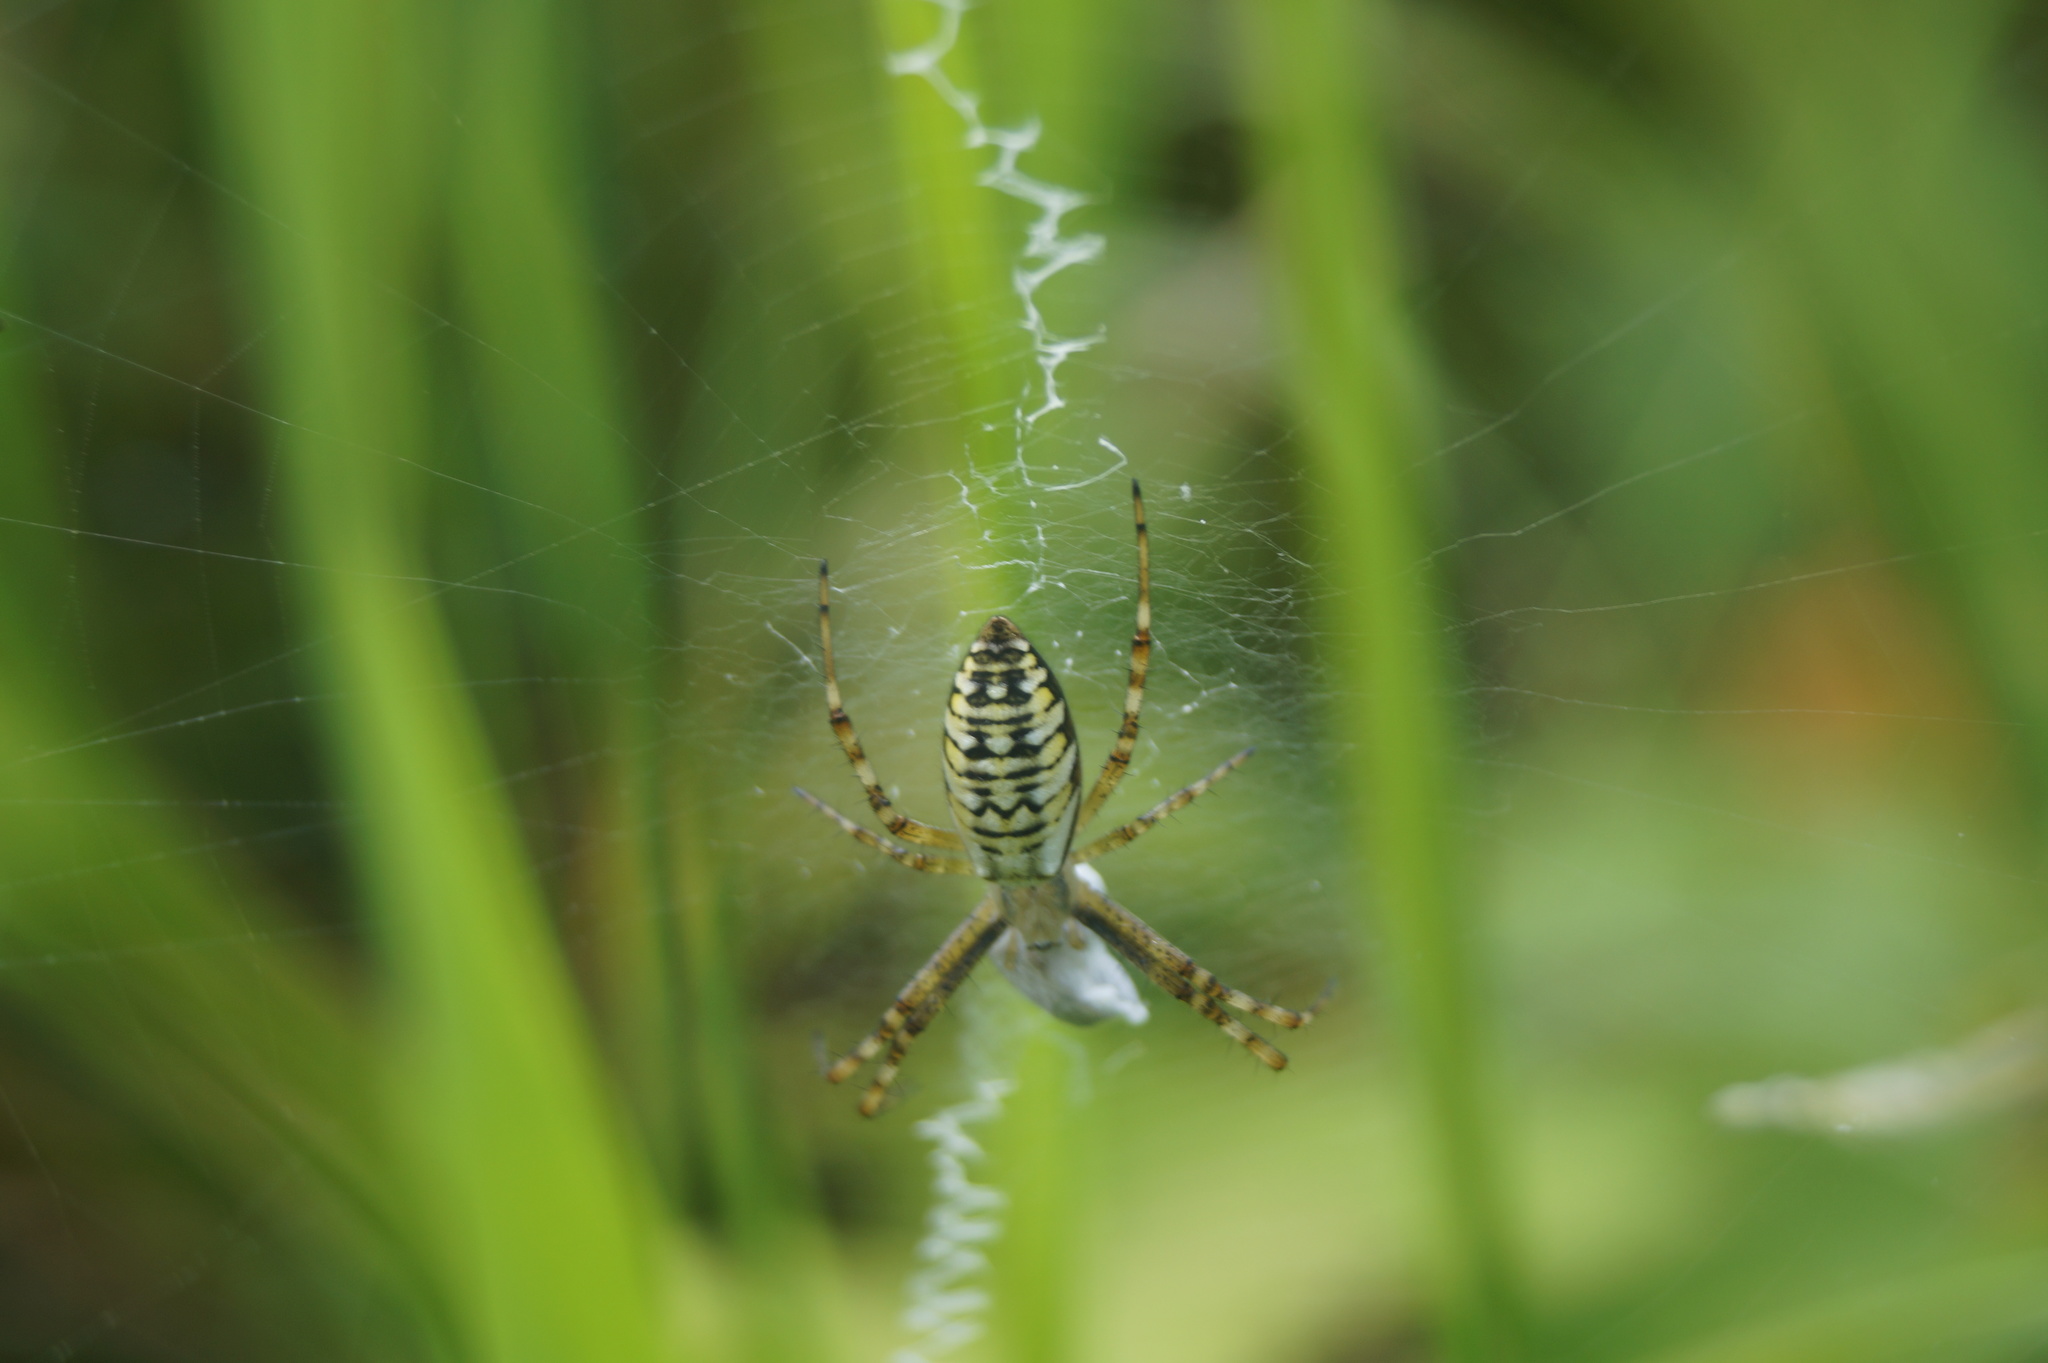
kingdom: Animalia
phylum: Arthropoda
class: Arachnida
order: Araneae
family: Araneidae
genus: Argiope
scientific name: Argiope bruennichi
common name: Wasp spider
